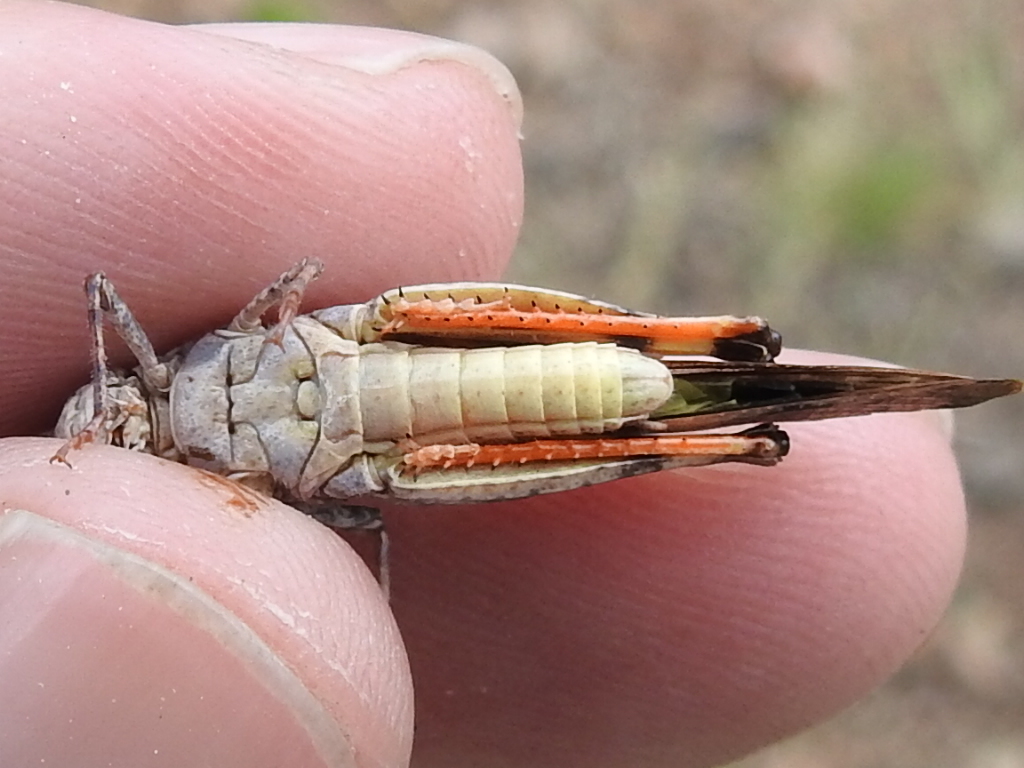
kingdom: Animalia
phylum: Arthropoda
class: Insecta
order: Orthoptera
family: Acrididae
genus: Trimerotropis
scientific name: Trimerotropis modesta
